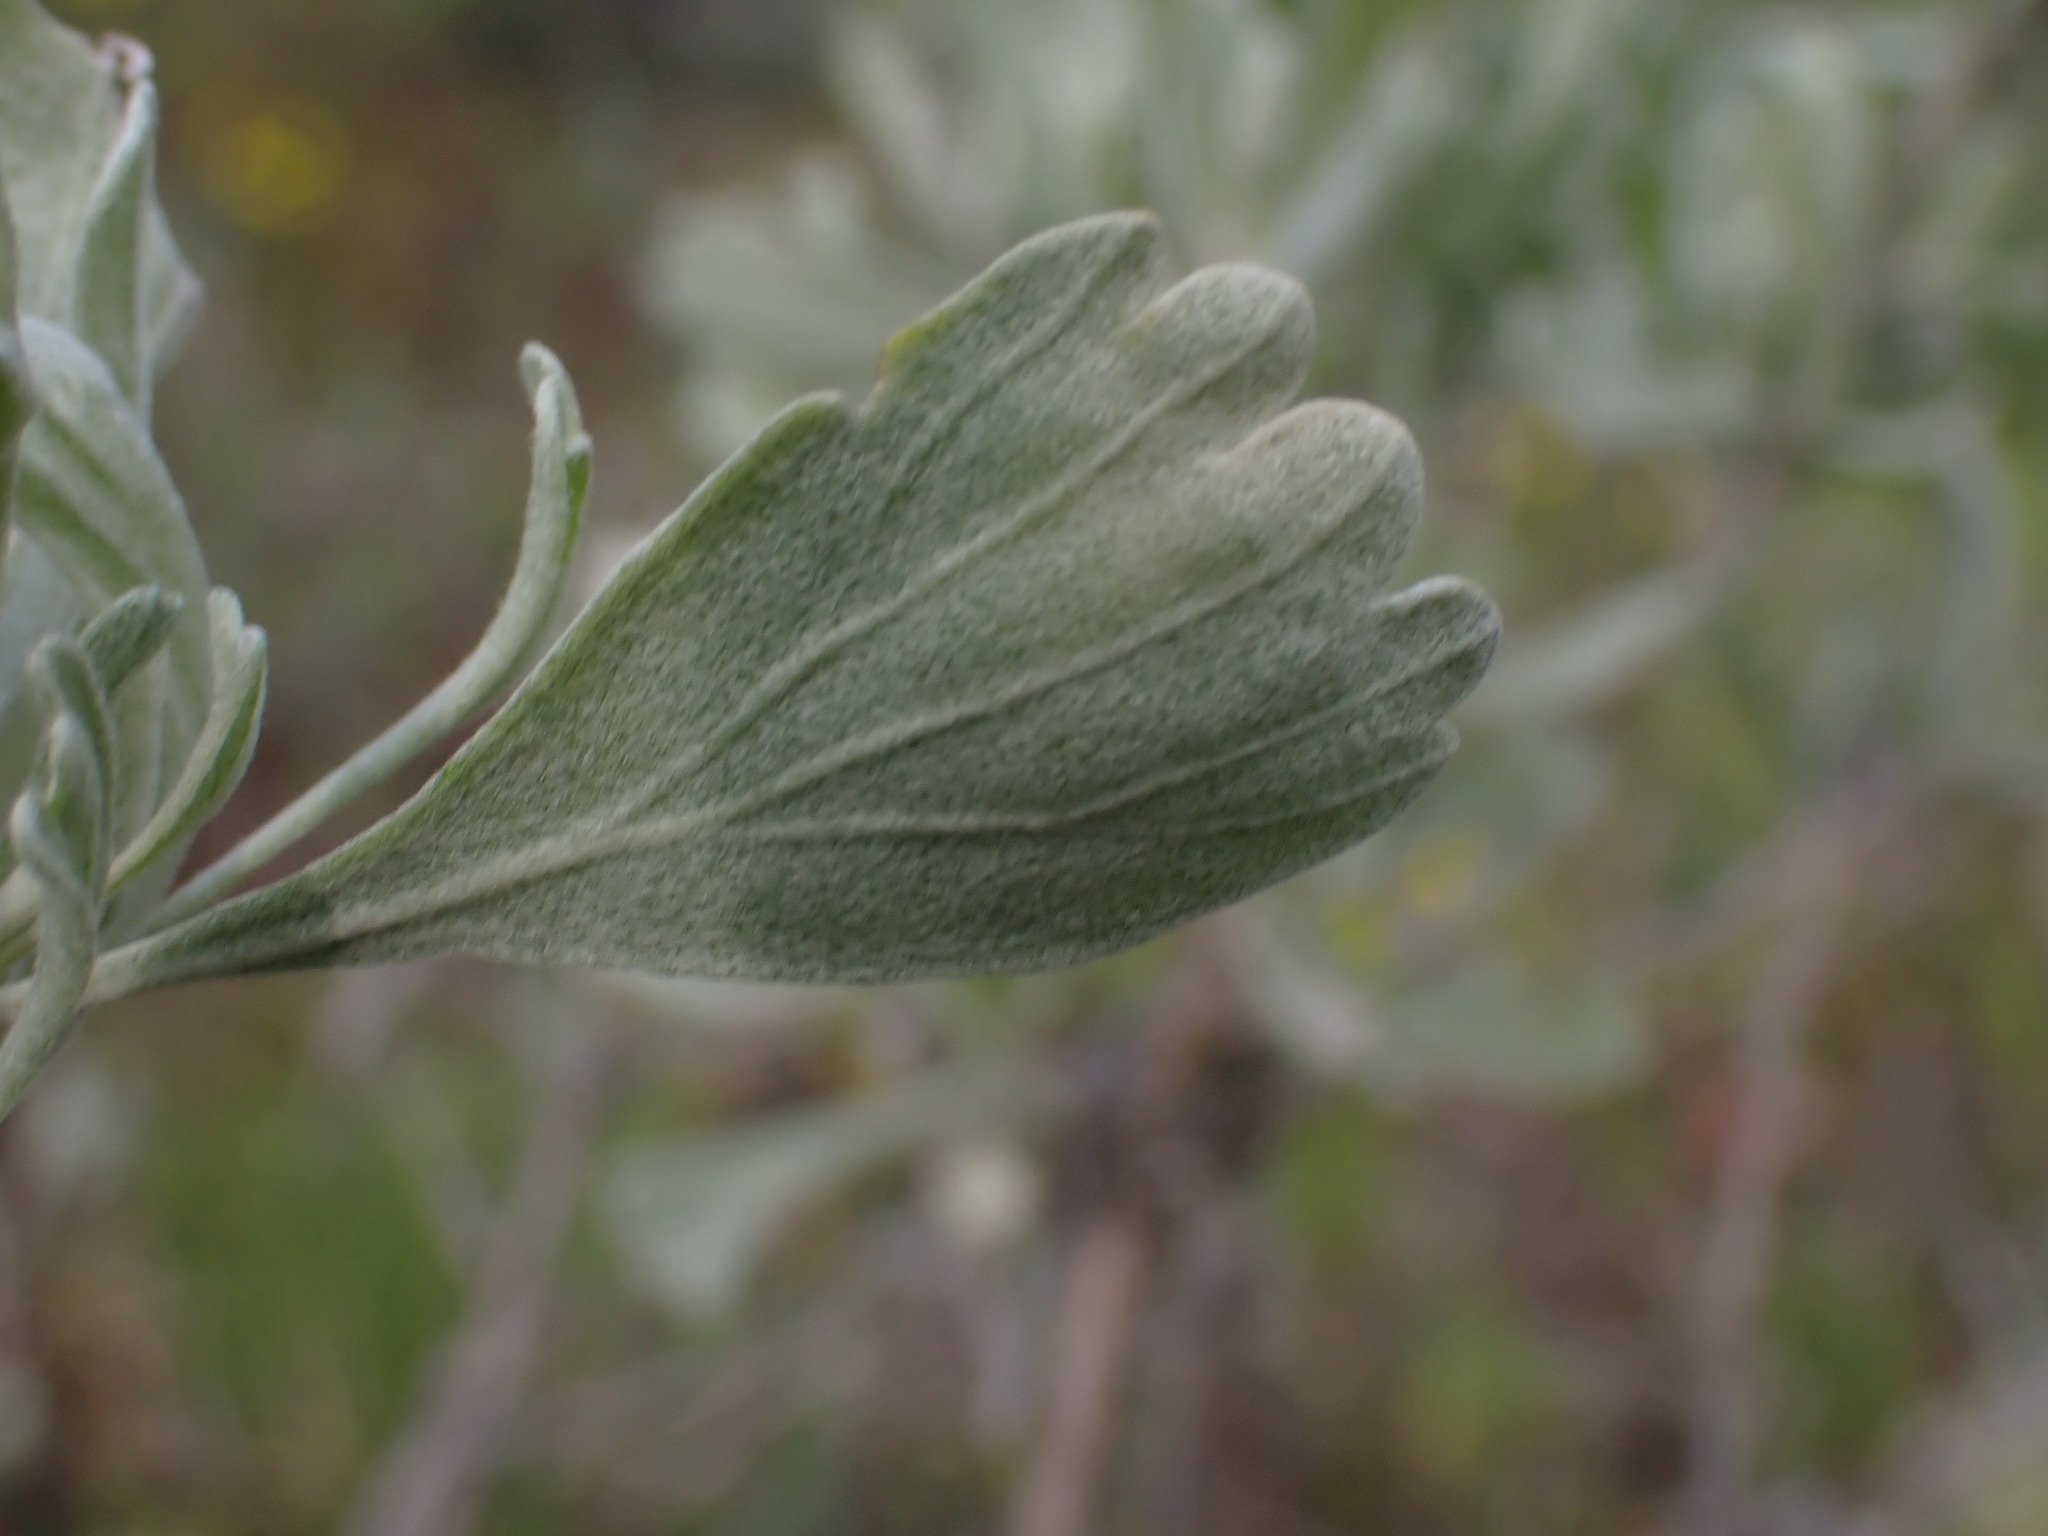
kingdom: Plantae
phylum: Tracheophyta
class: Magnoliopsida
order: Asterales
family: Asteraceae
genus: Artemisia
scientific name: Artemisia tridentata
